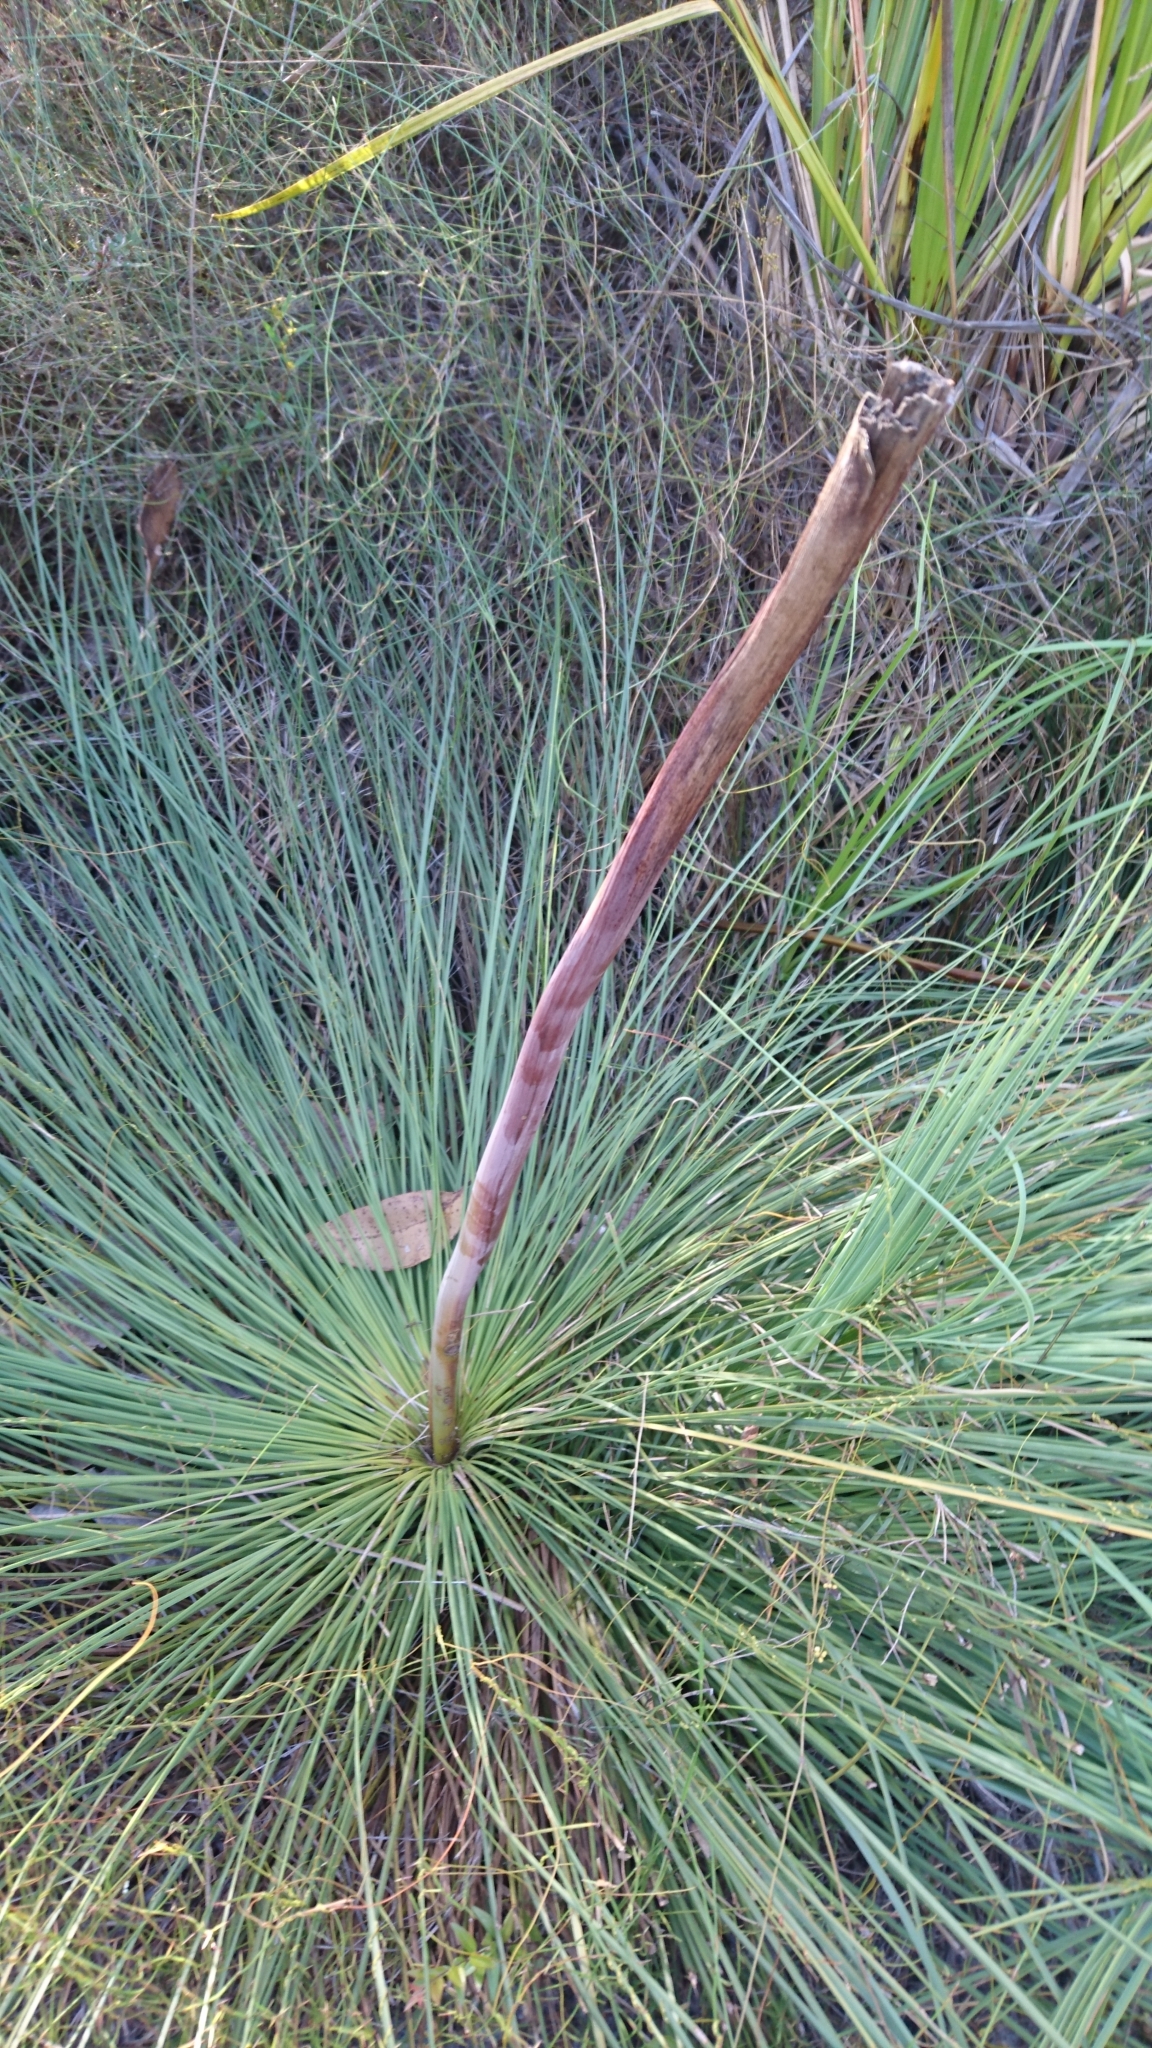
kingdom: Plantae
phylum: Tracheophyta
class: Liliopsida
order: Asparagales
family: Asphodelaceae
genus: Xanthorrhoea
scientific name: Xanthorrhoea fulva
